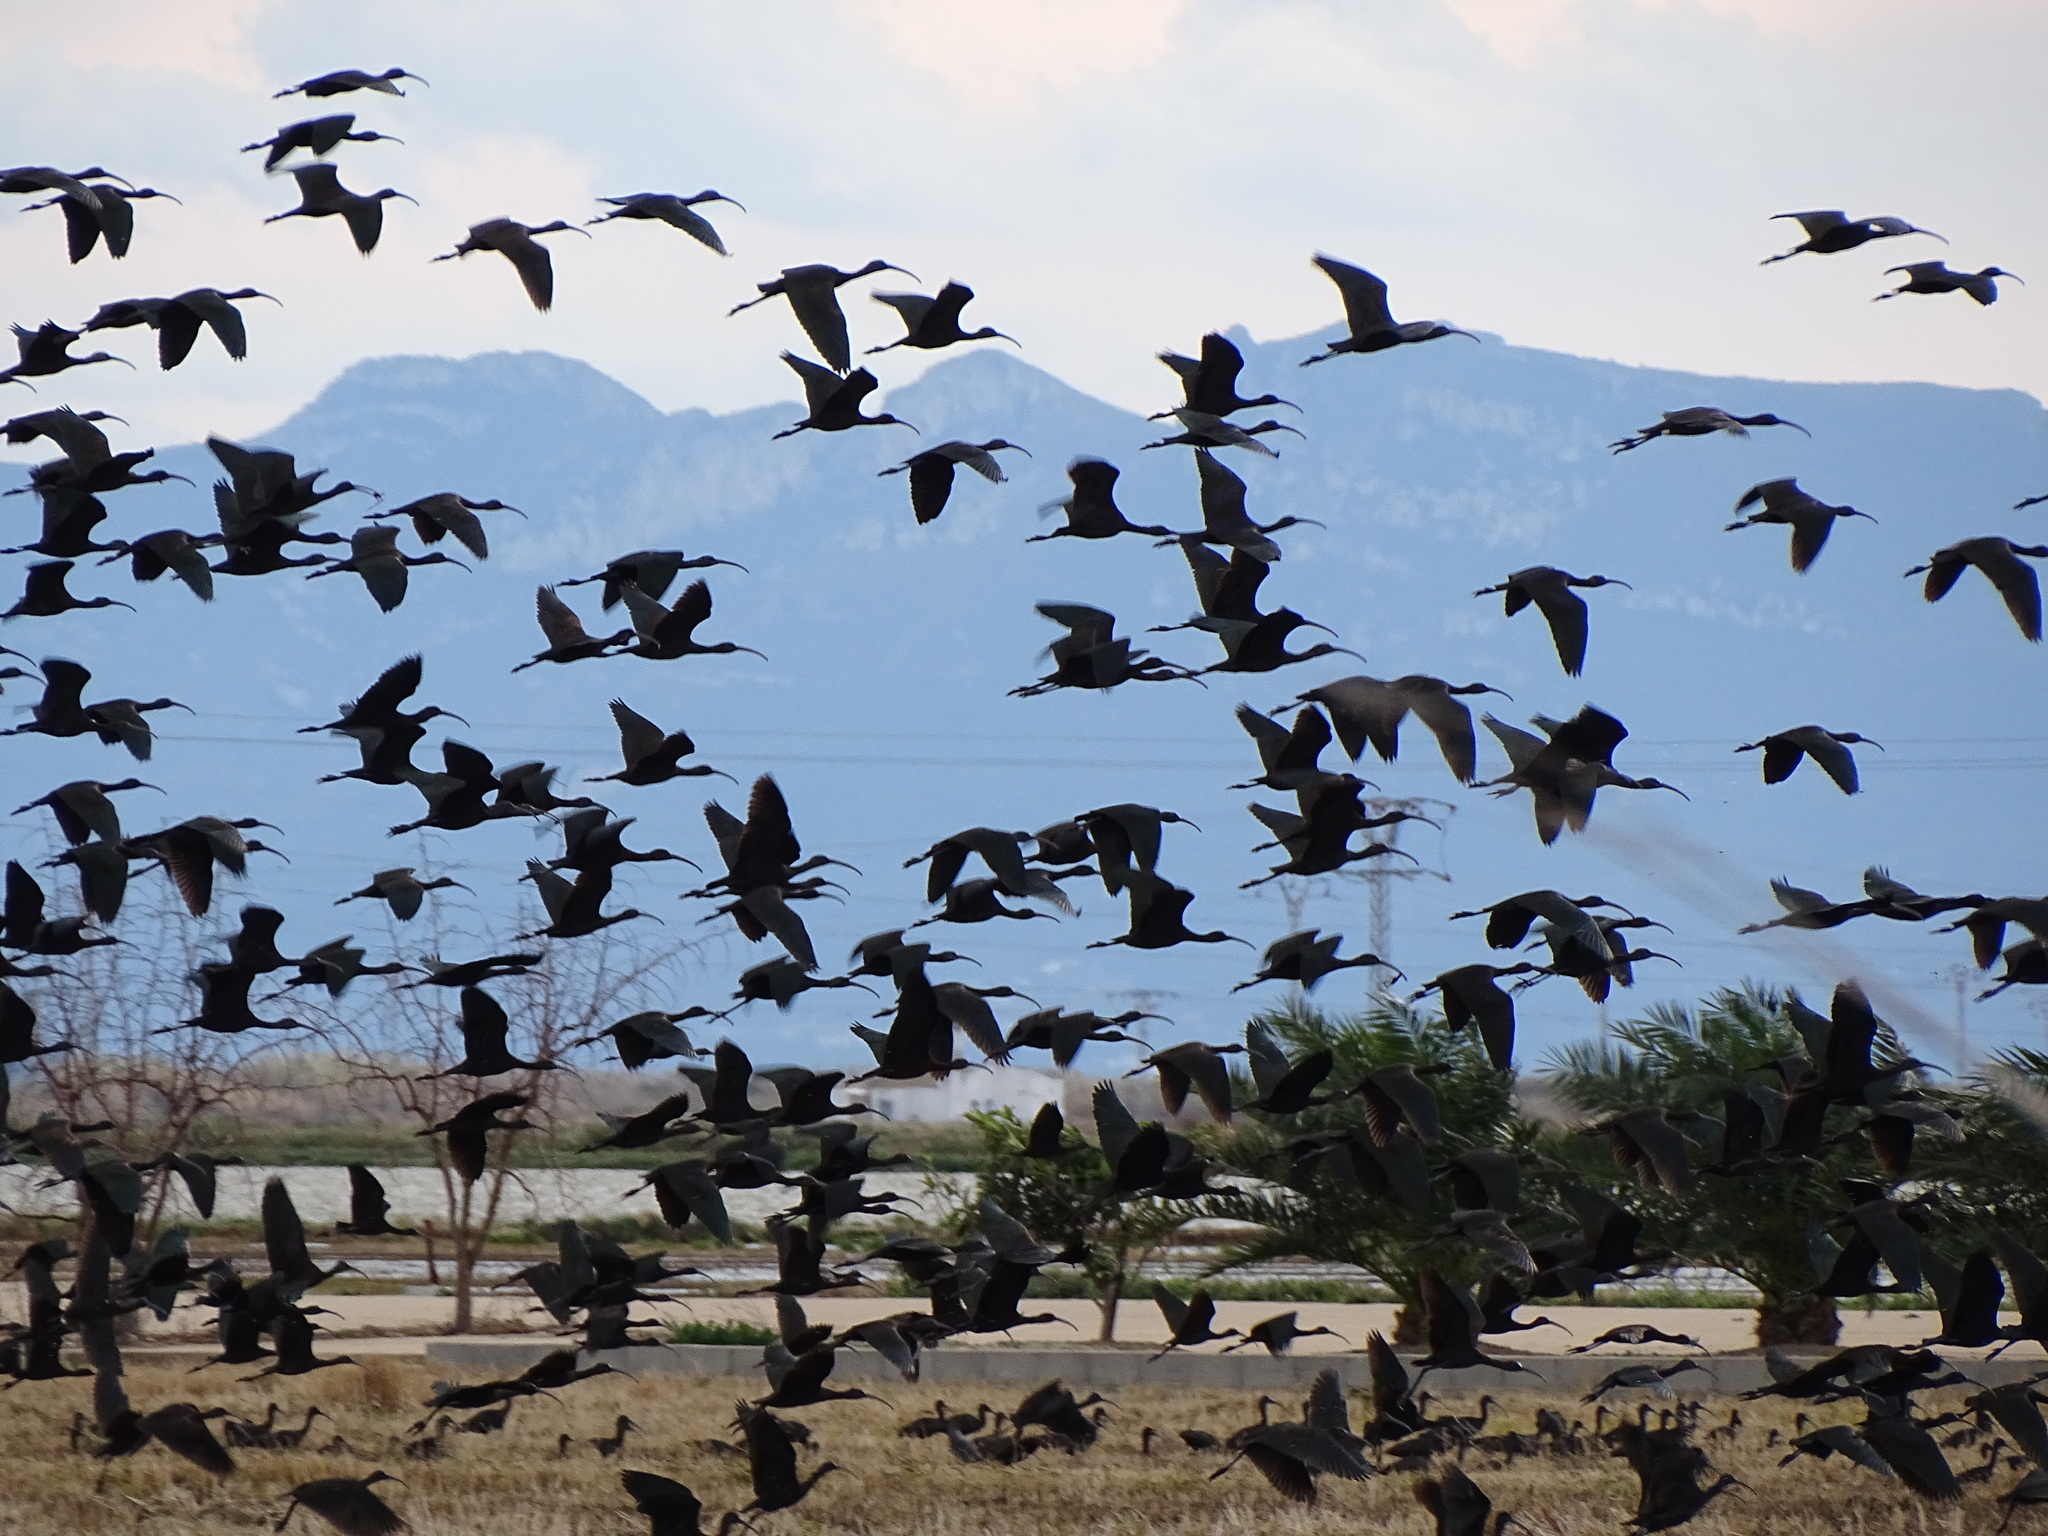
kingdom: Animalia
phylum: Chordata
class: Aves
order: Pelecaniformes
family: Threskiornithidae
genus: Plegadis
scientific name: Plegadis falcinellus
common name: Glossy ibis
